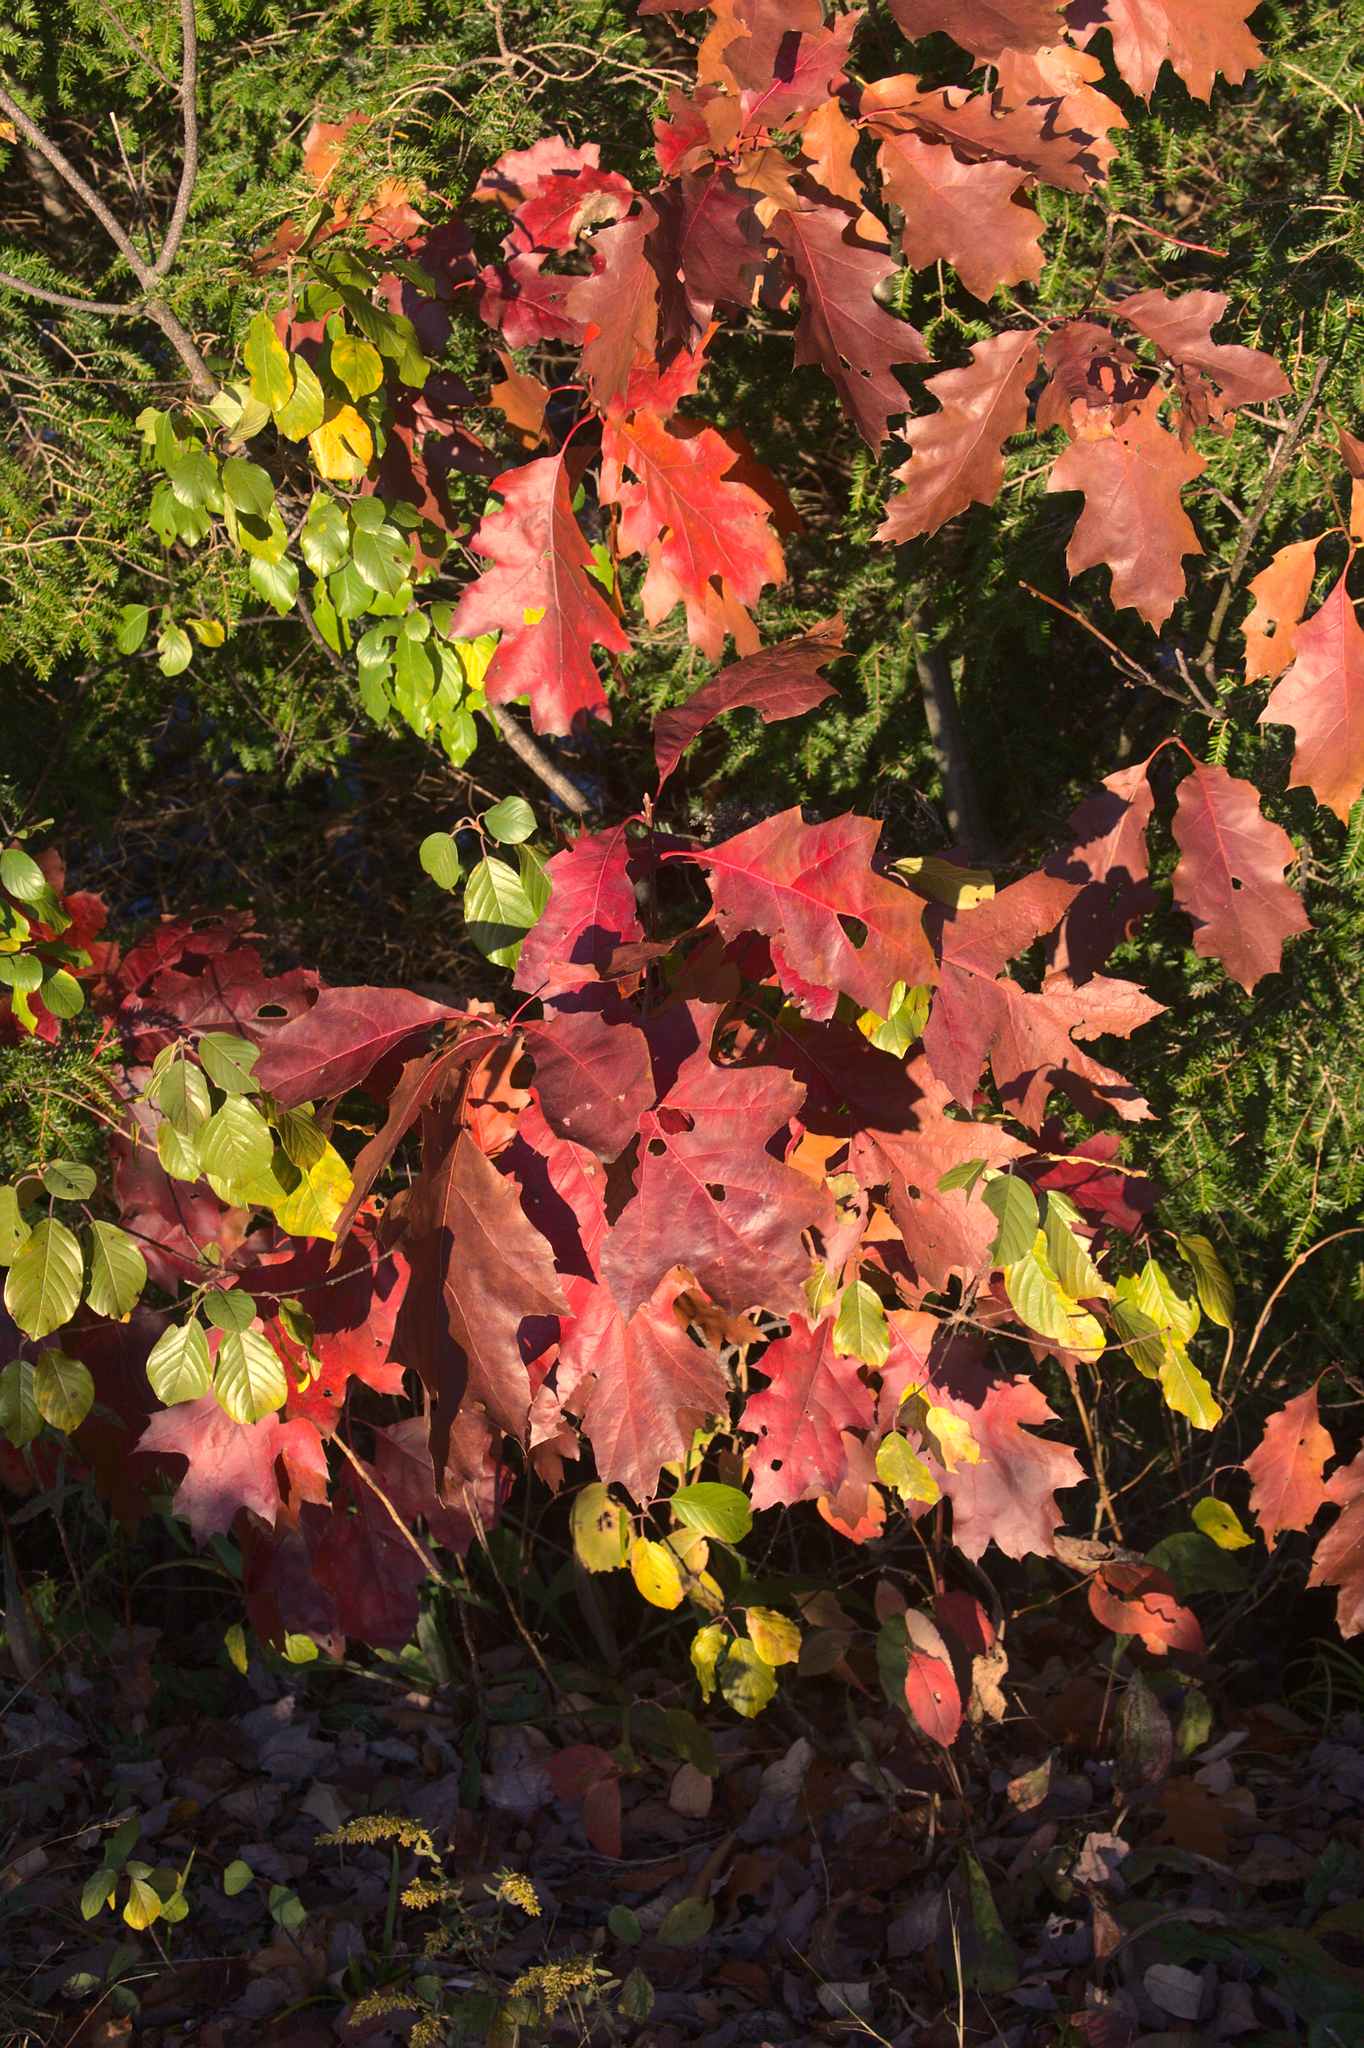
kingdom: Plantae
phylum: Tracheophyta
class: Magnoliopsida
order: Rosales
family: Rhamnaceae
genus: Frangula
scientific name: Frangula alnus
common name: Alder buckthorn
